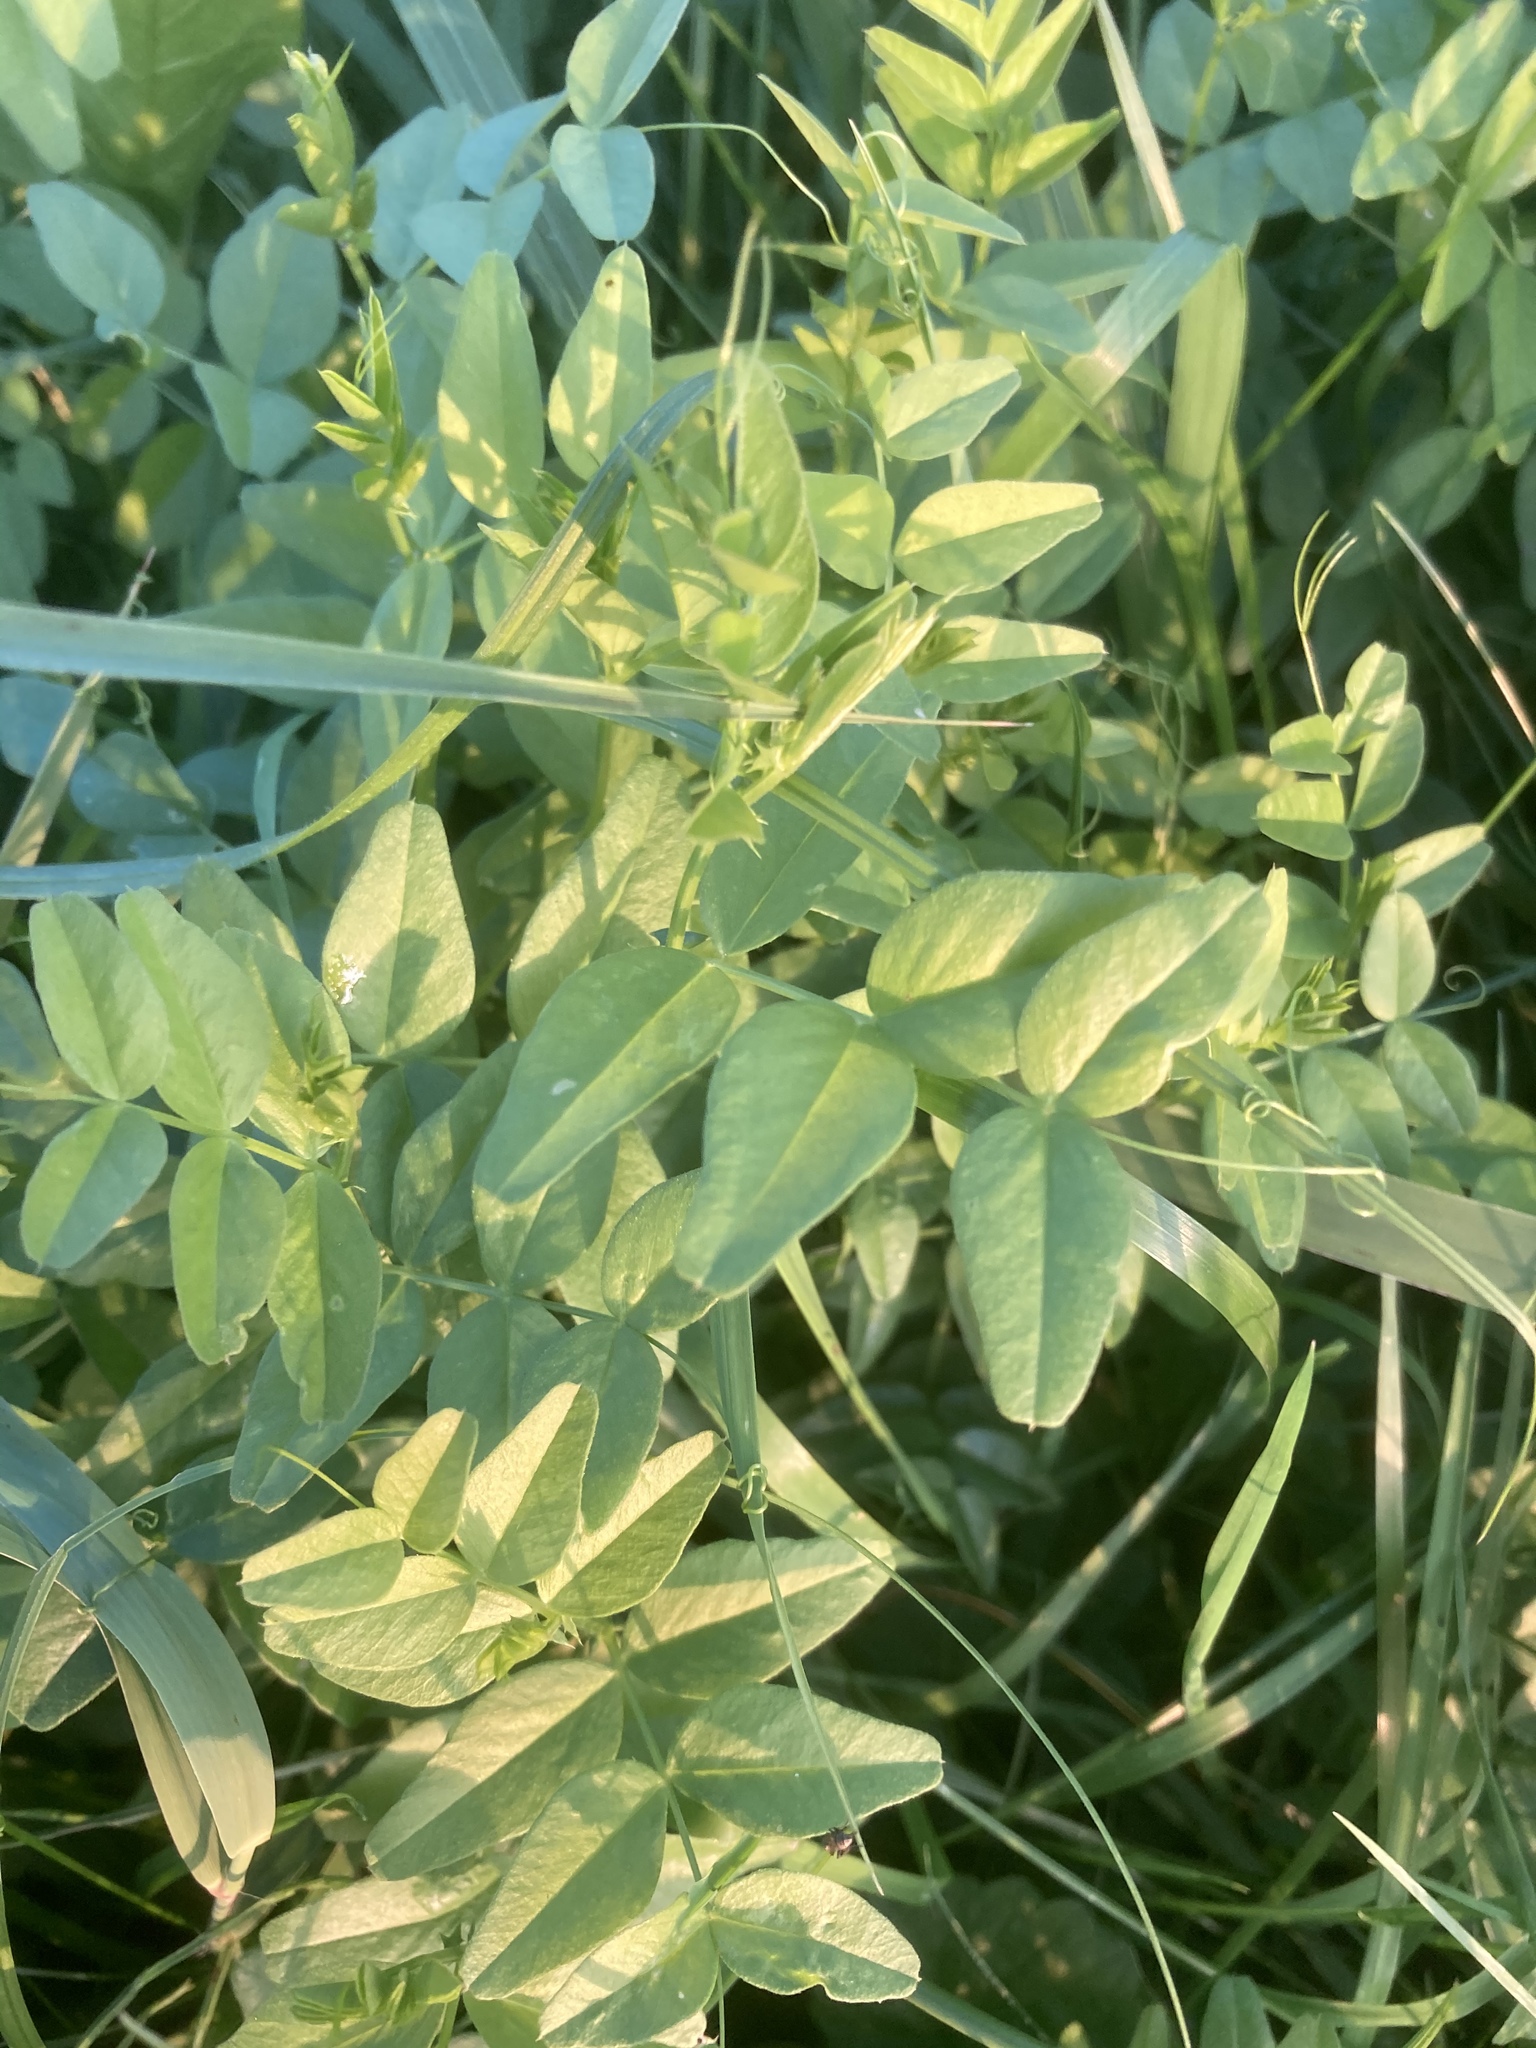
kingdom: Plantae
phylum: Tracheophyta
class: Magnoliopsida
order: Fabales
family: Fabaceae
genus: Vicia
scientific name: Vicia sepium
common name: Bush vetch
